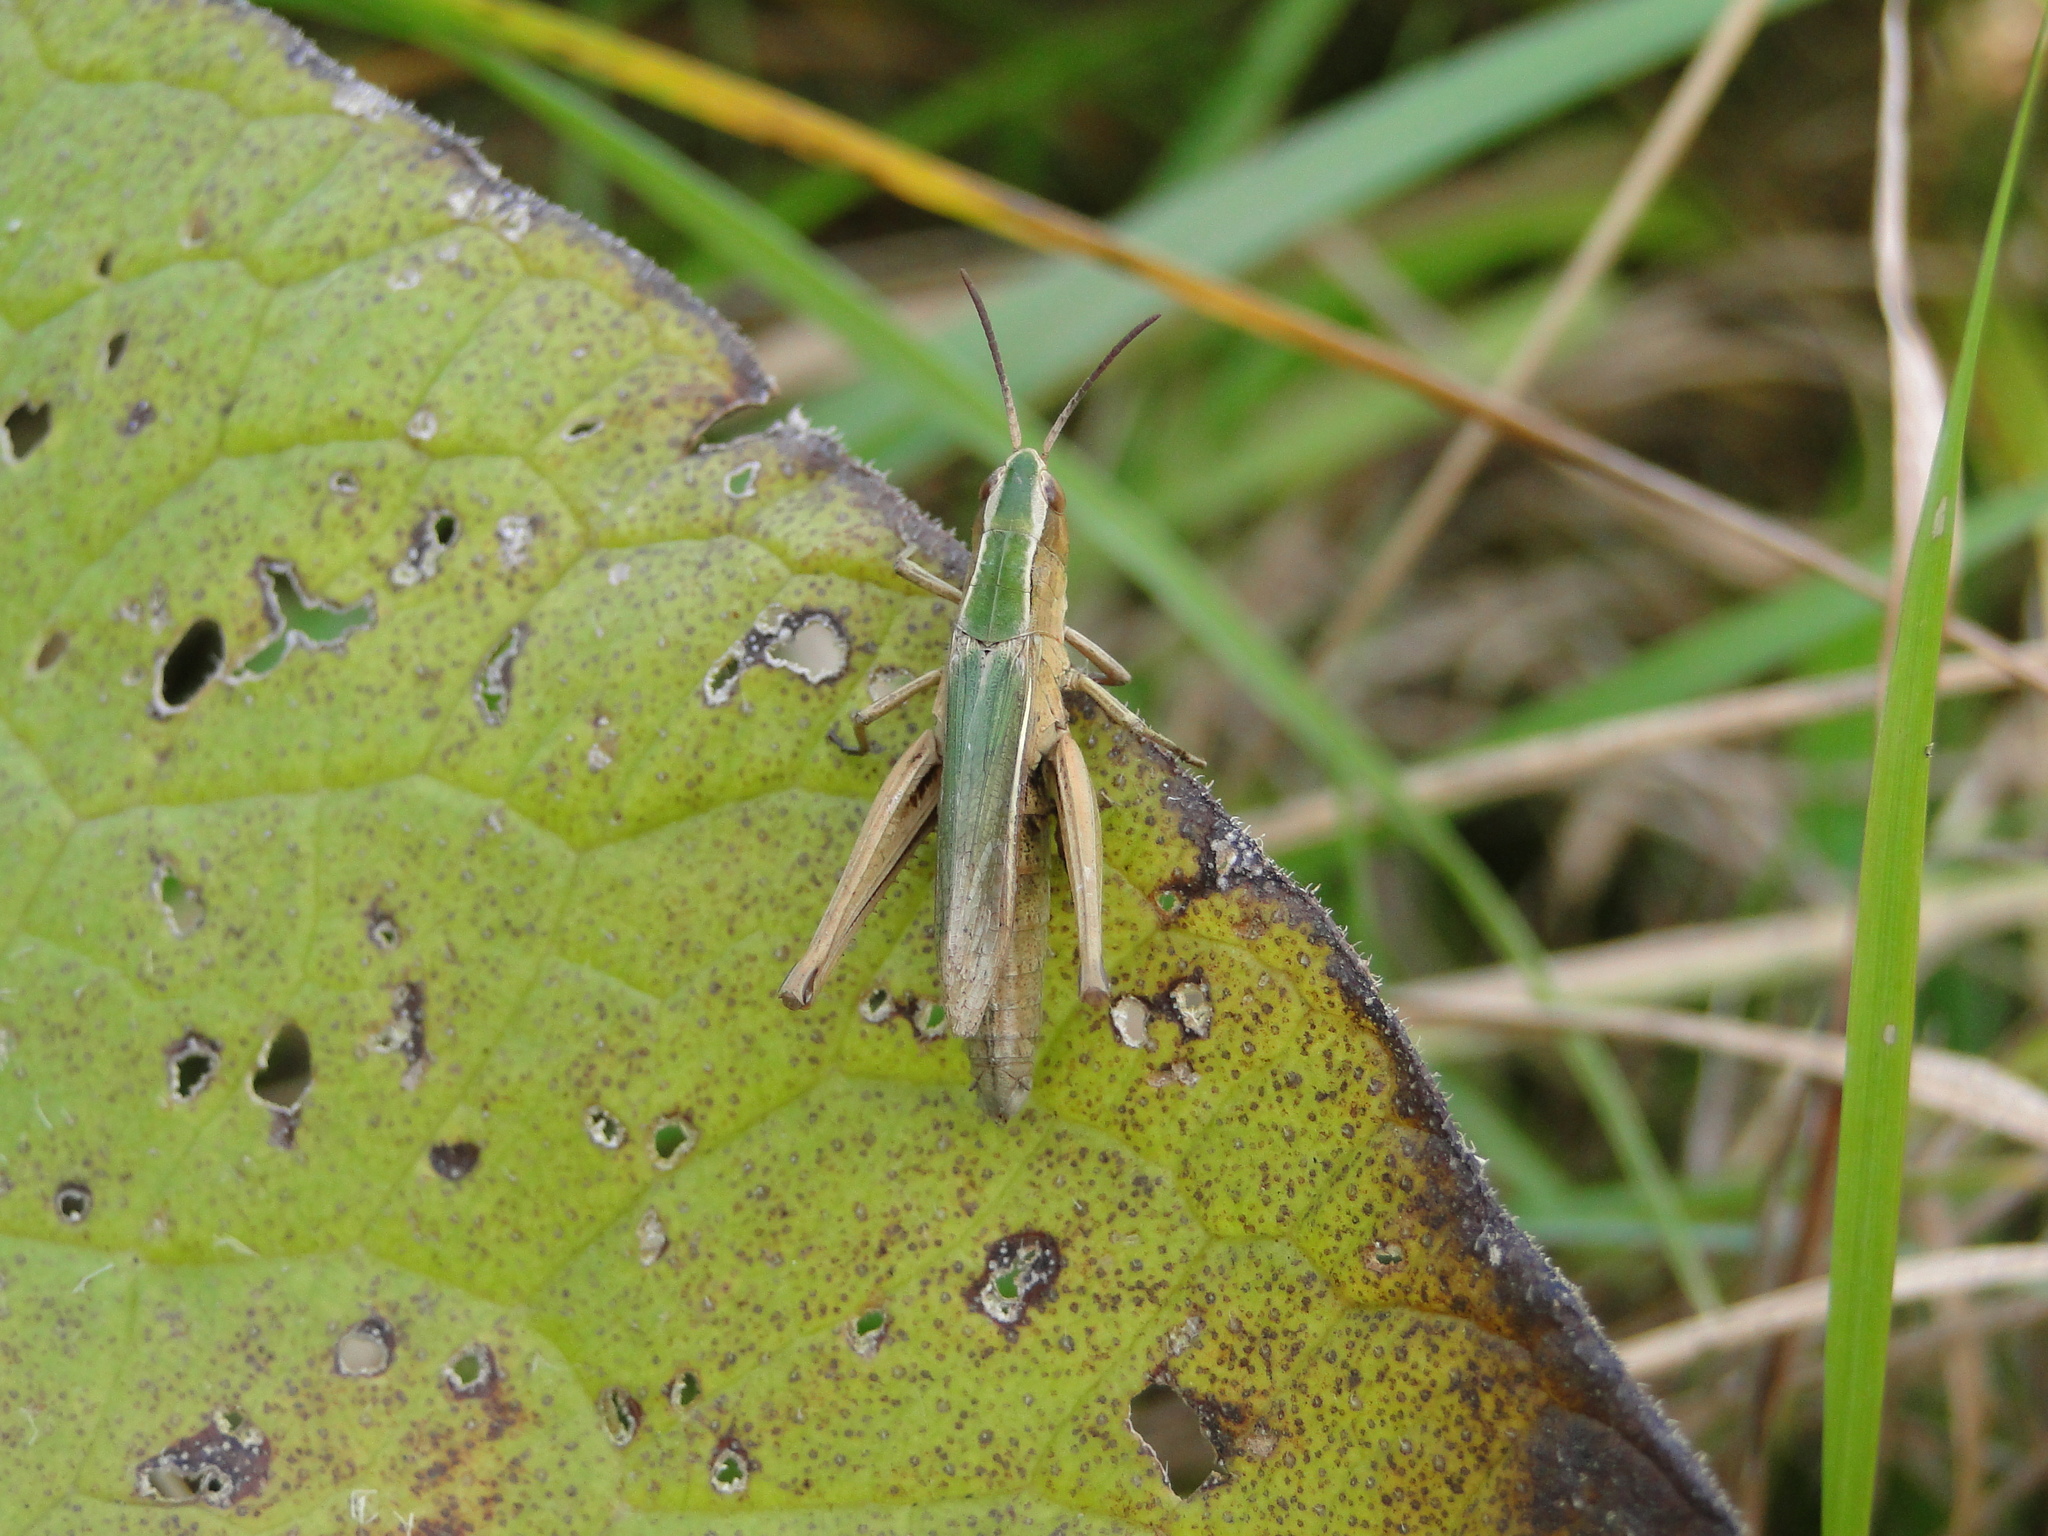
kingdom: Animalia
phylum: Arthropoda
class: Insecta
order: Orthoptera
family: Acrididae
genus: Chorthippus
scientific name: Chorthippus albomarginatus
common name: Lesser marsh grasshopper
